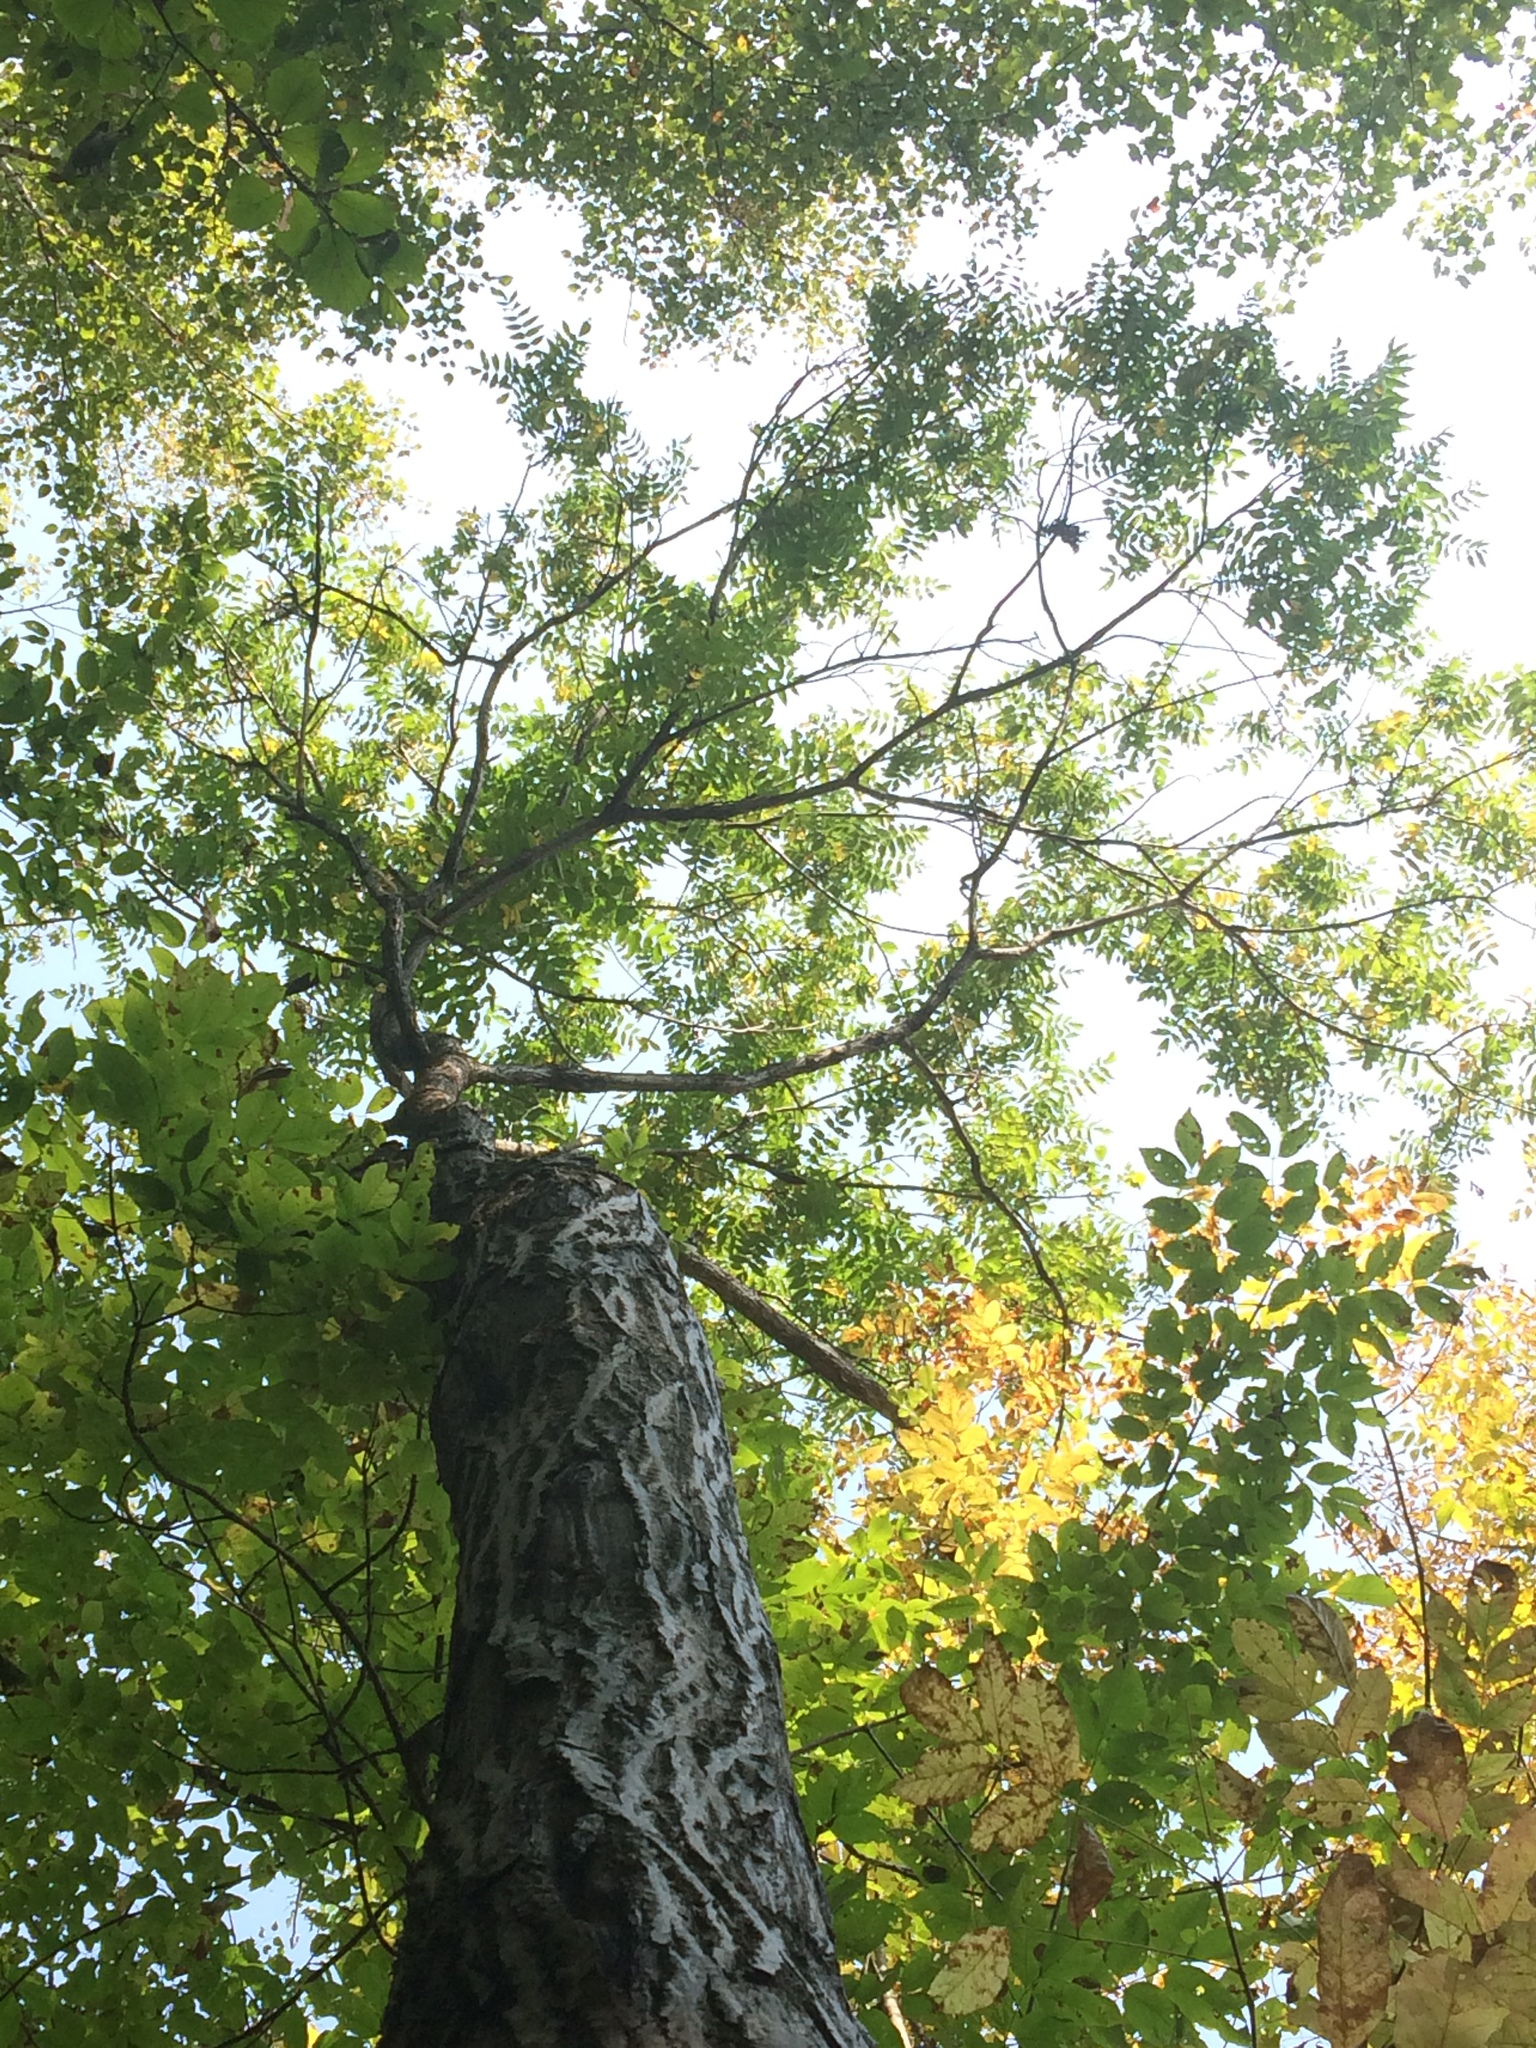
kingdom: Plantae
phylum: Tracheophyta
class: Magnoliopsida
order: Fagales
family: Juglandaceae
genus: Juglans
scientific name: Juglans cinerea
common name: Butternut
